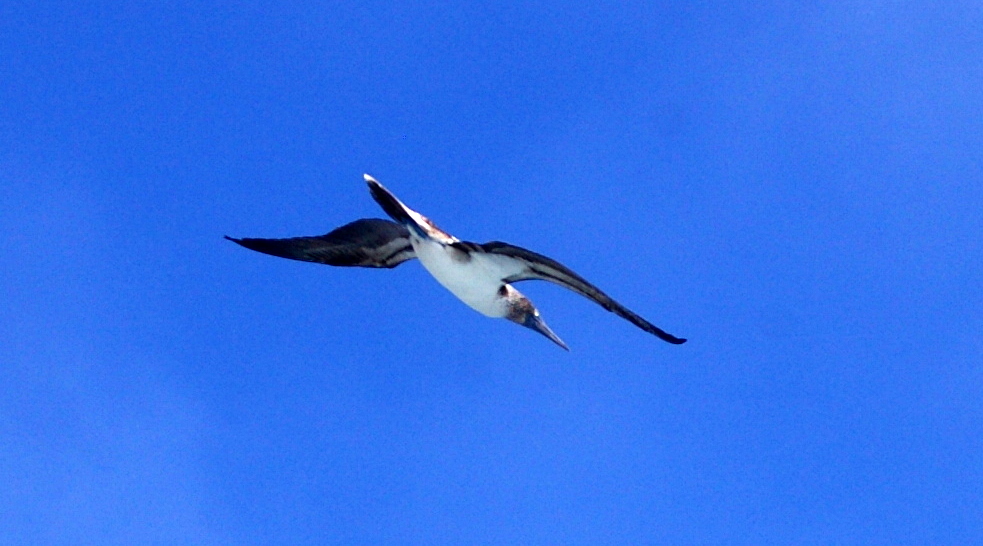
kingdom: Animalia
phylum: Chordata
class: Aves
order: Suliformes
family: Sulidae
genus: Sula
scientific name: Sula nebouxii
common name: Blue-footed booby
